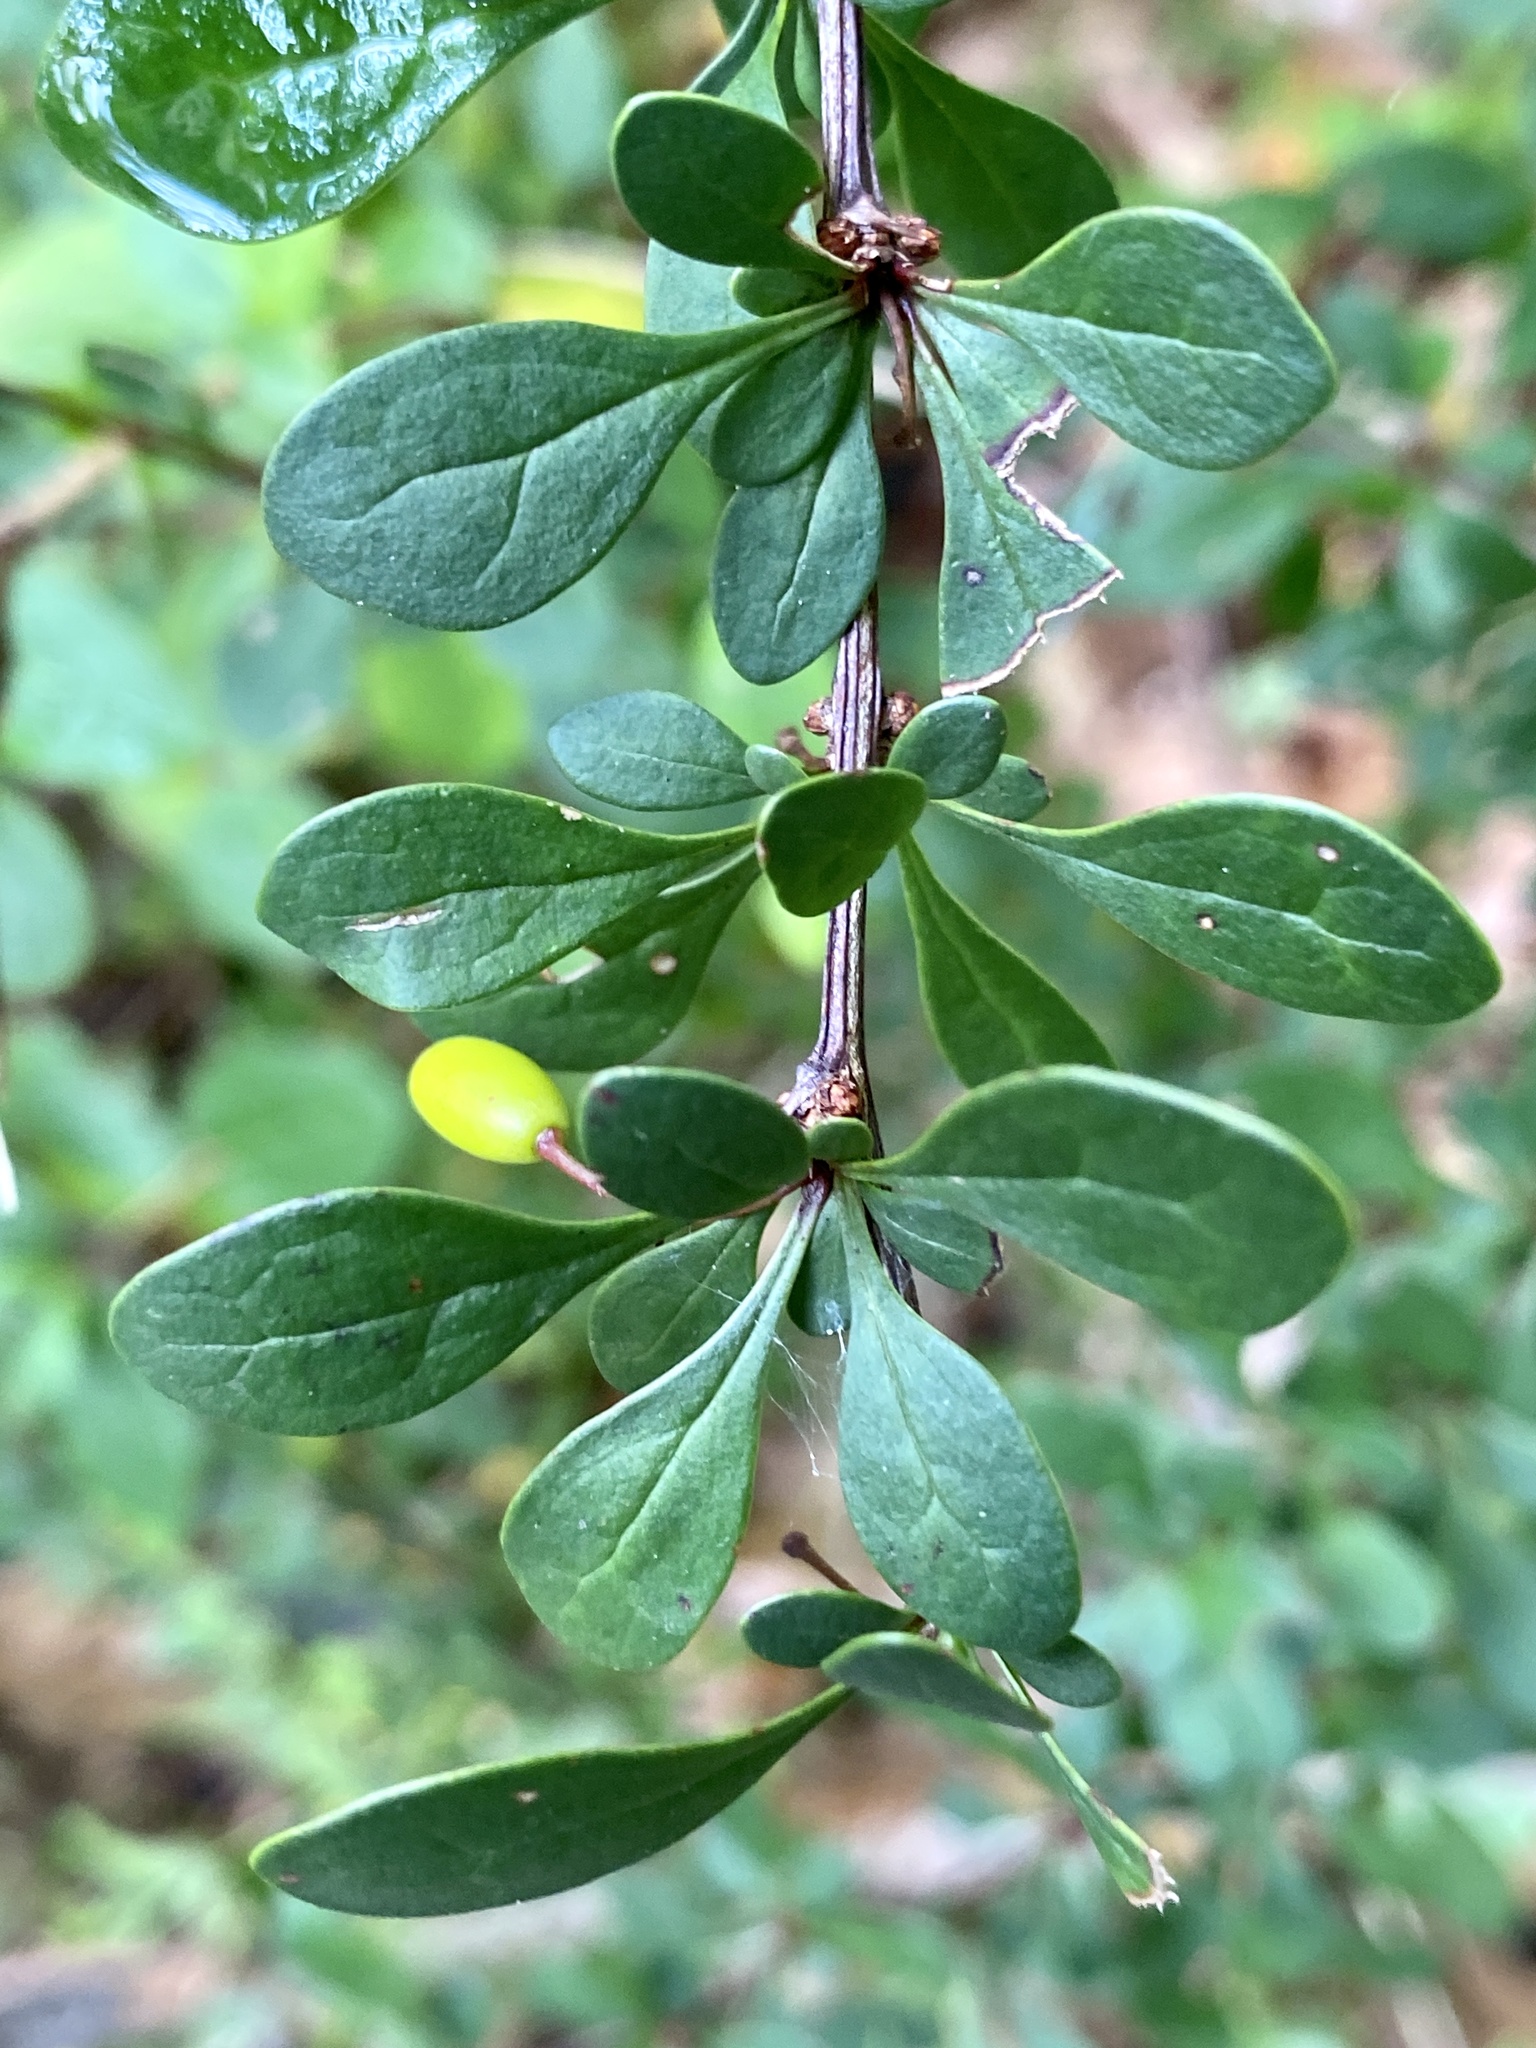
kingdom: Plantae
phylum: Tracheophyta
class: Magnoliopsida
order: Ranunculales
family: Berberidaceae
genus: Berberis
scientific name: Berberis thunbergii
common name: Japanese barberry
